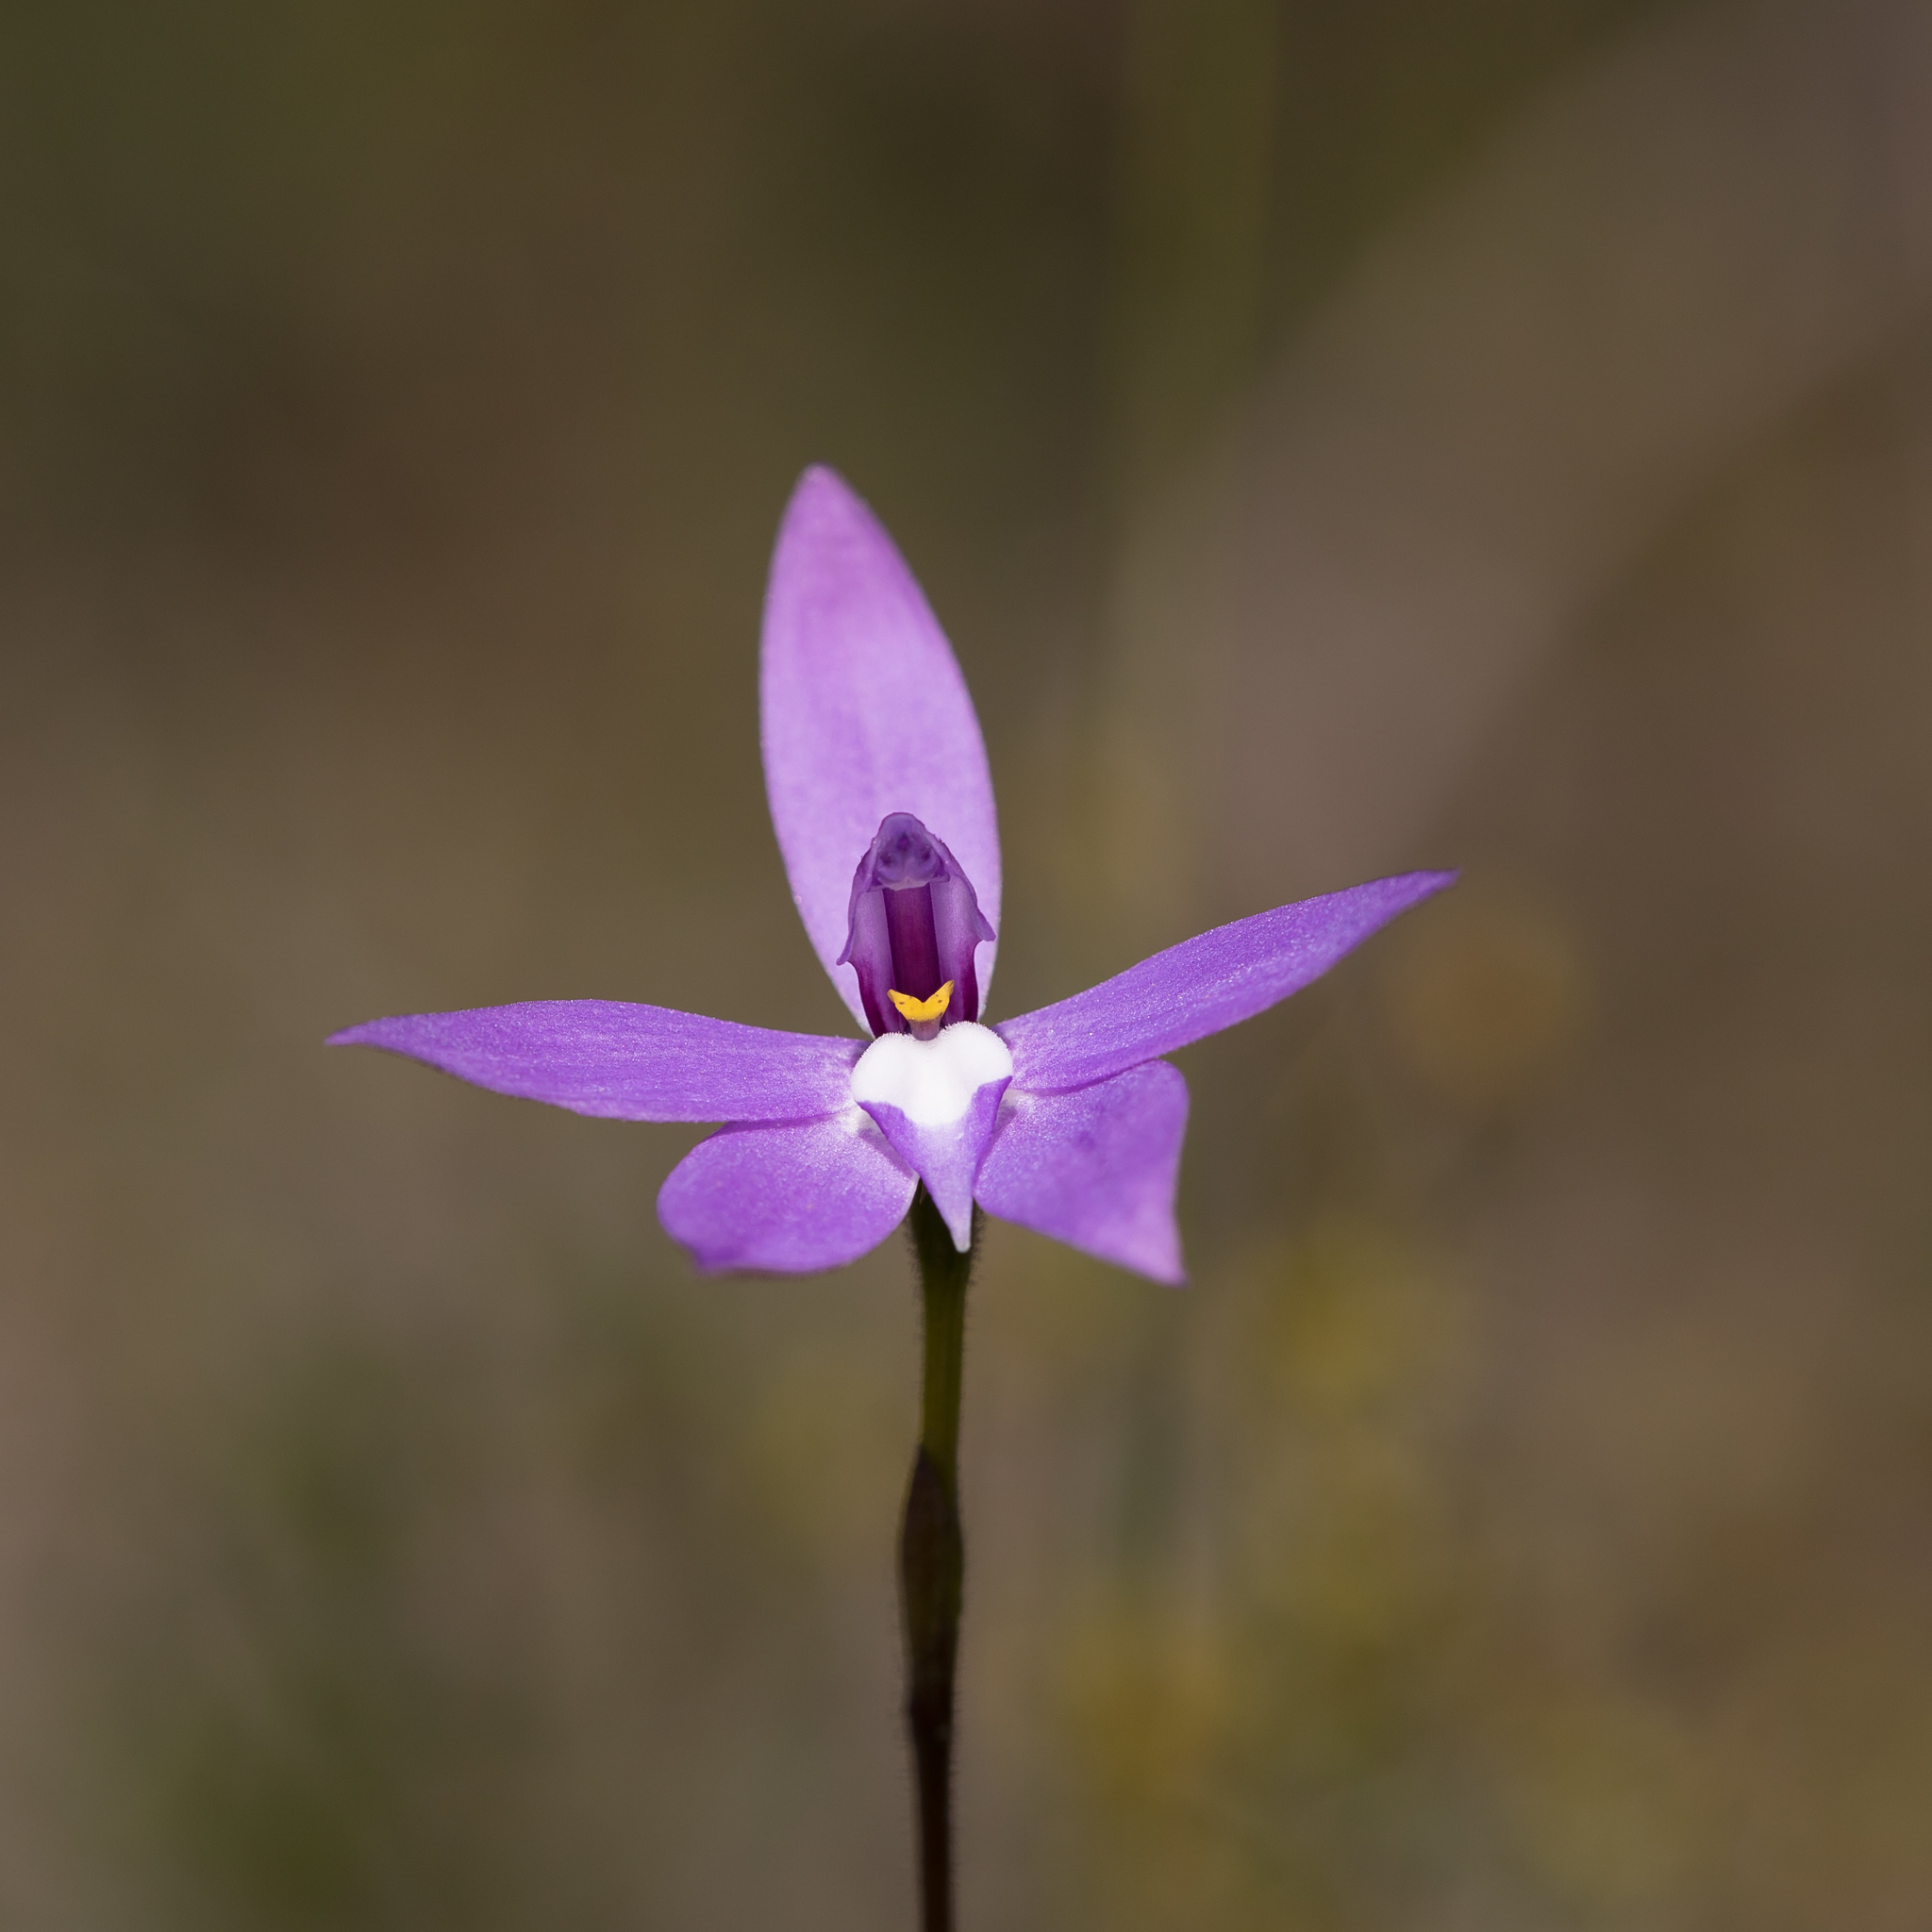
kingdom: Plantae
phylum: Tracheophyta
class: Liliopsida
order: Asparagales
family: Orchidaceae
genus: Caladenia
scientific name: Caladenia major
